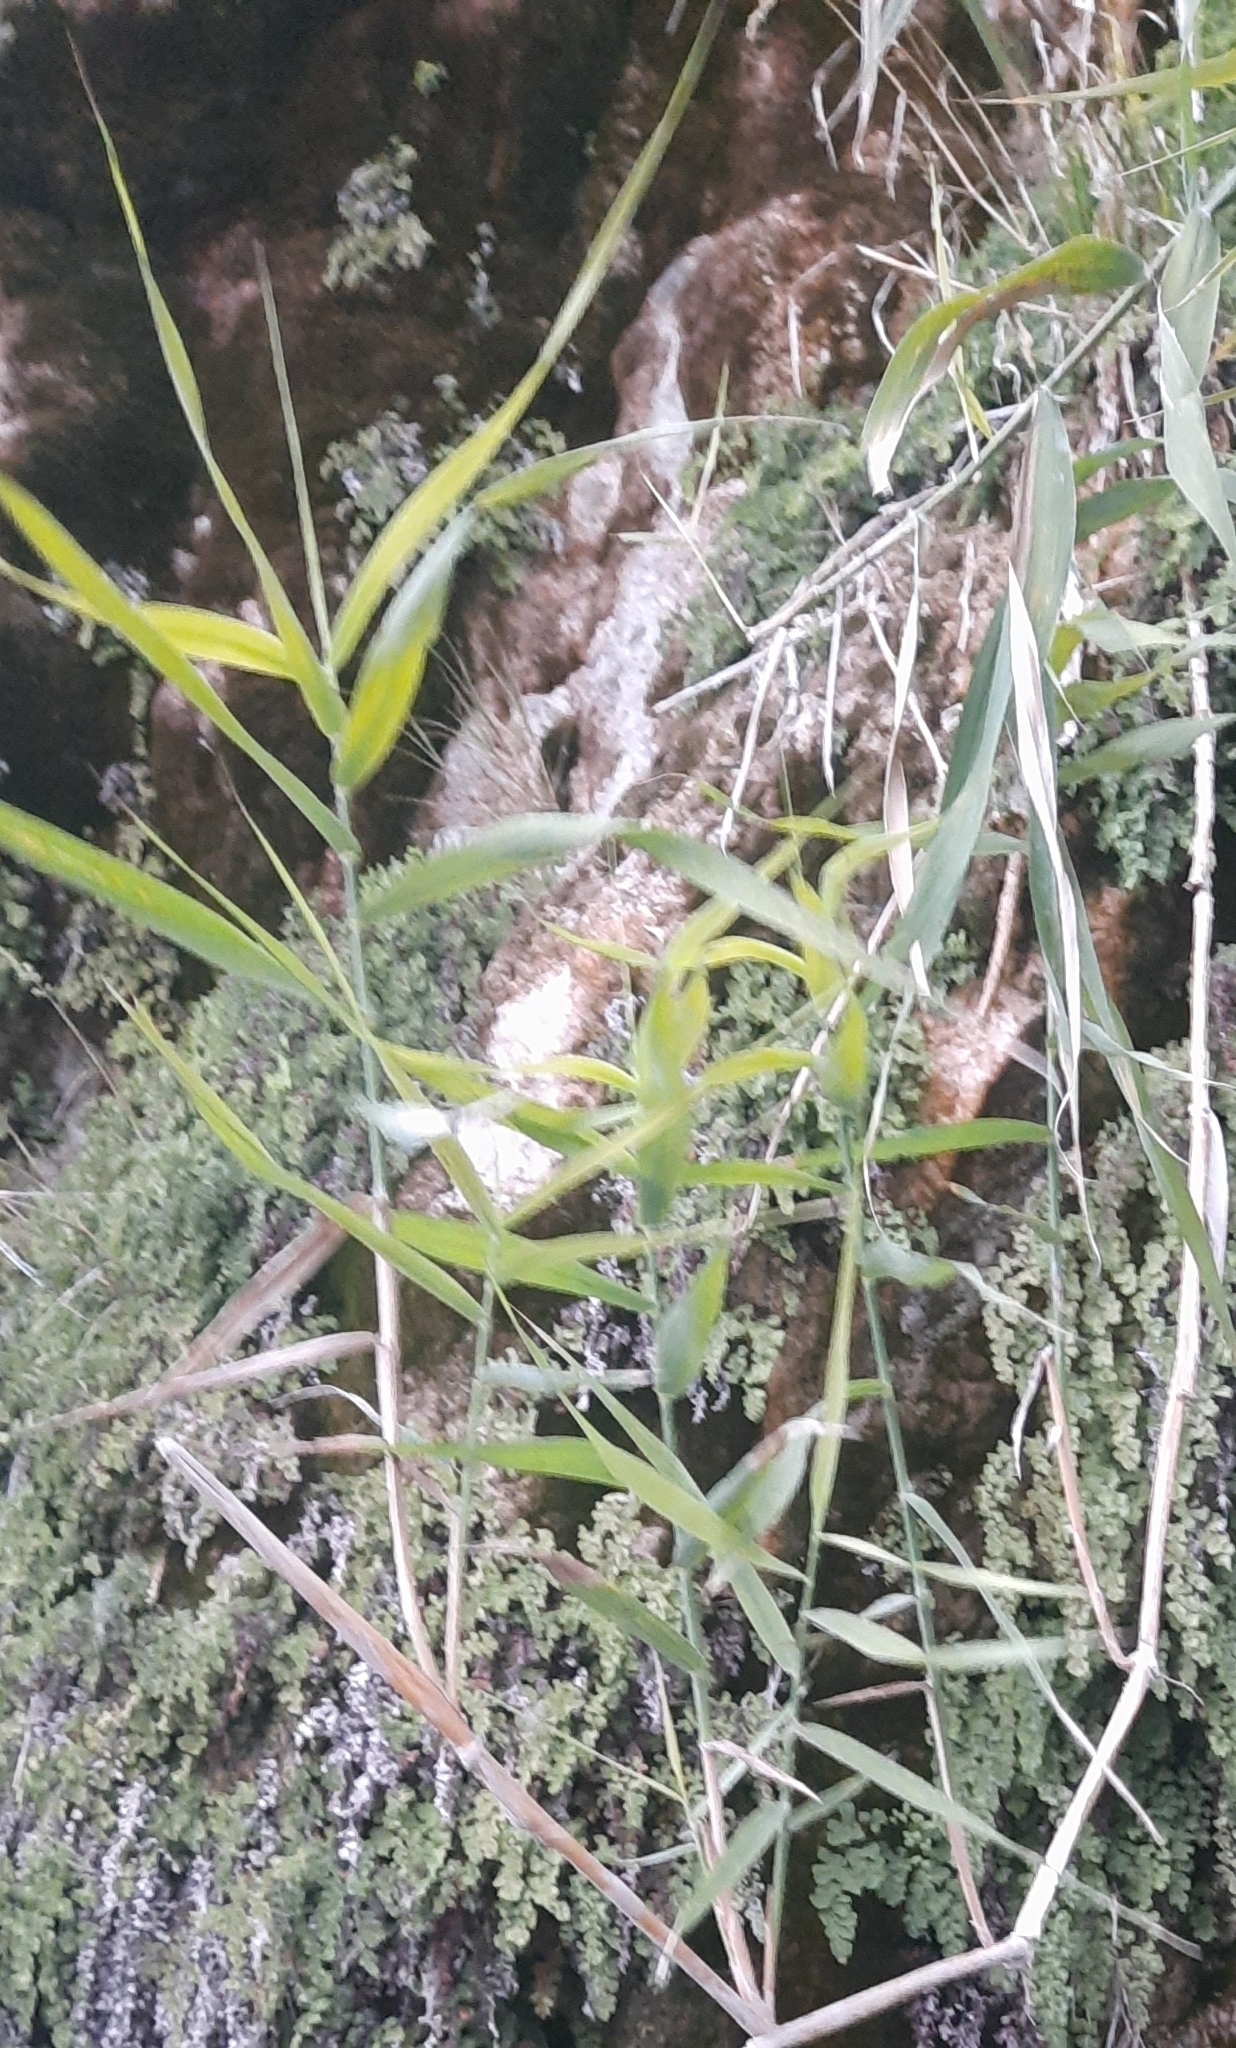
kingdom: Plantae
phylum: Tracheophyta
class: Liliopsida
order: Poales
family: Poaceae
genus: Phragmites
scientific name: Phragmites australis
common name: Common reed
